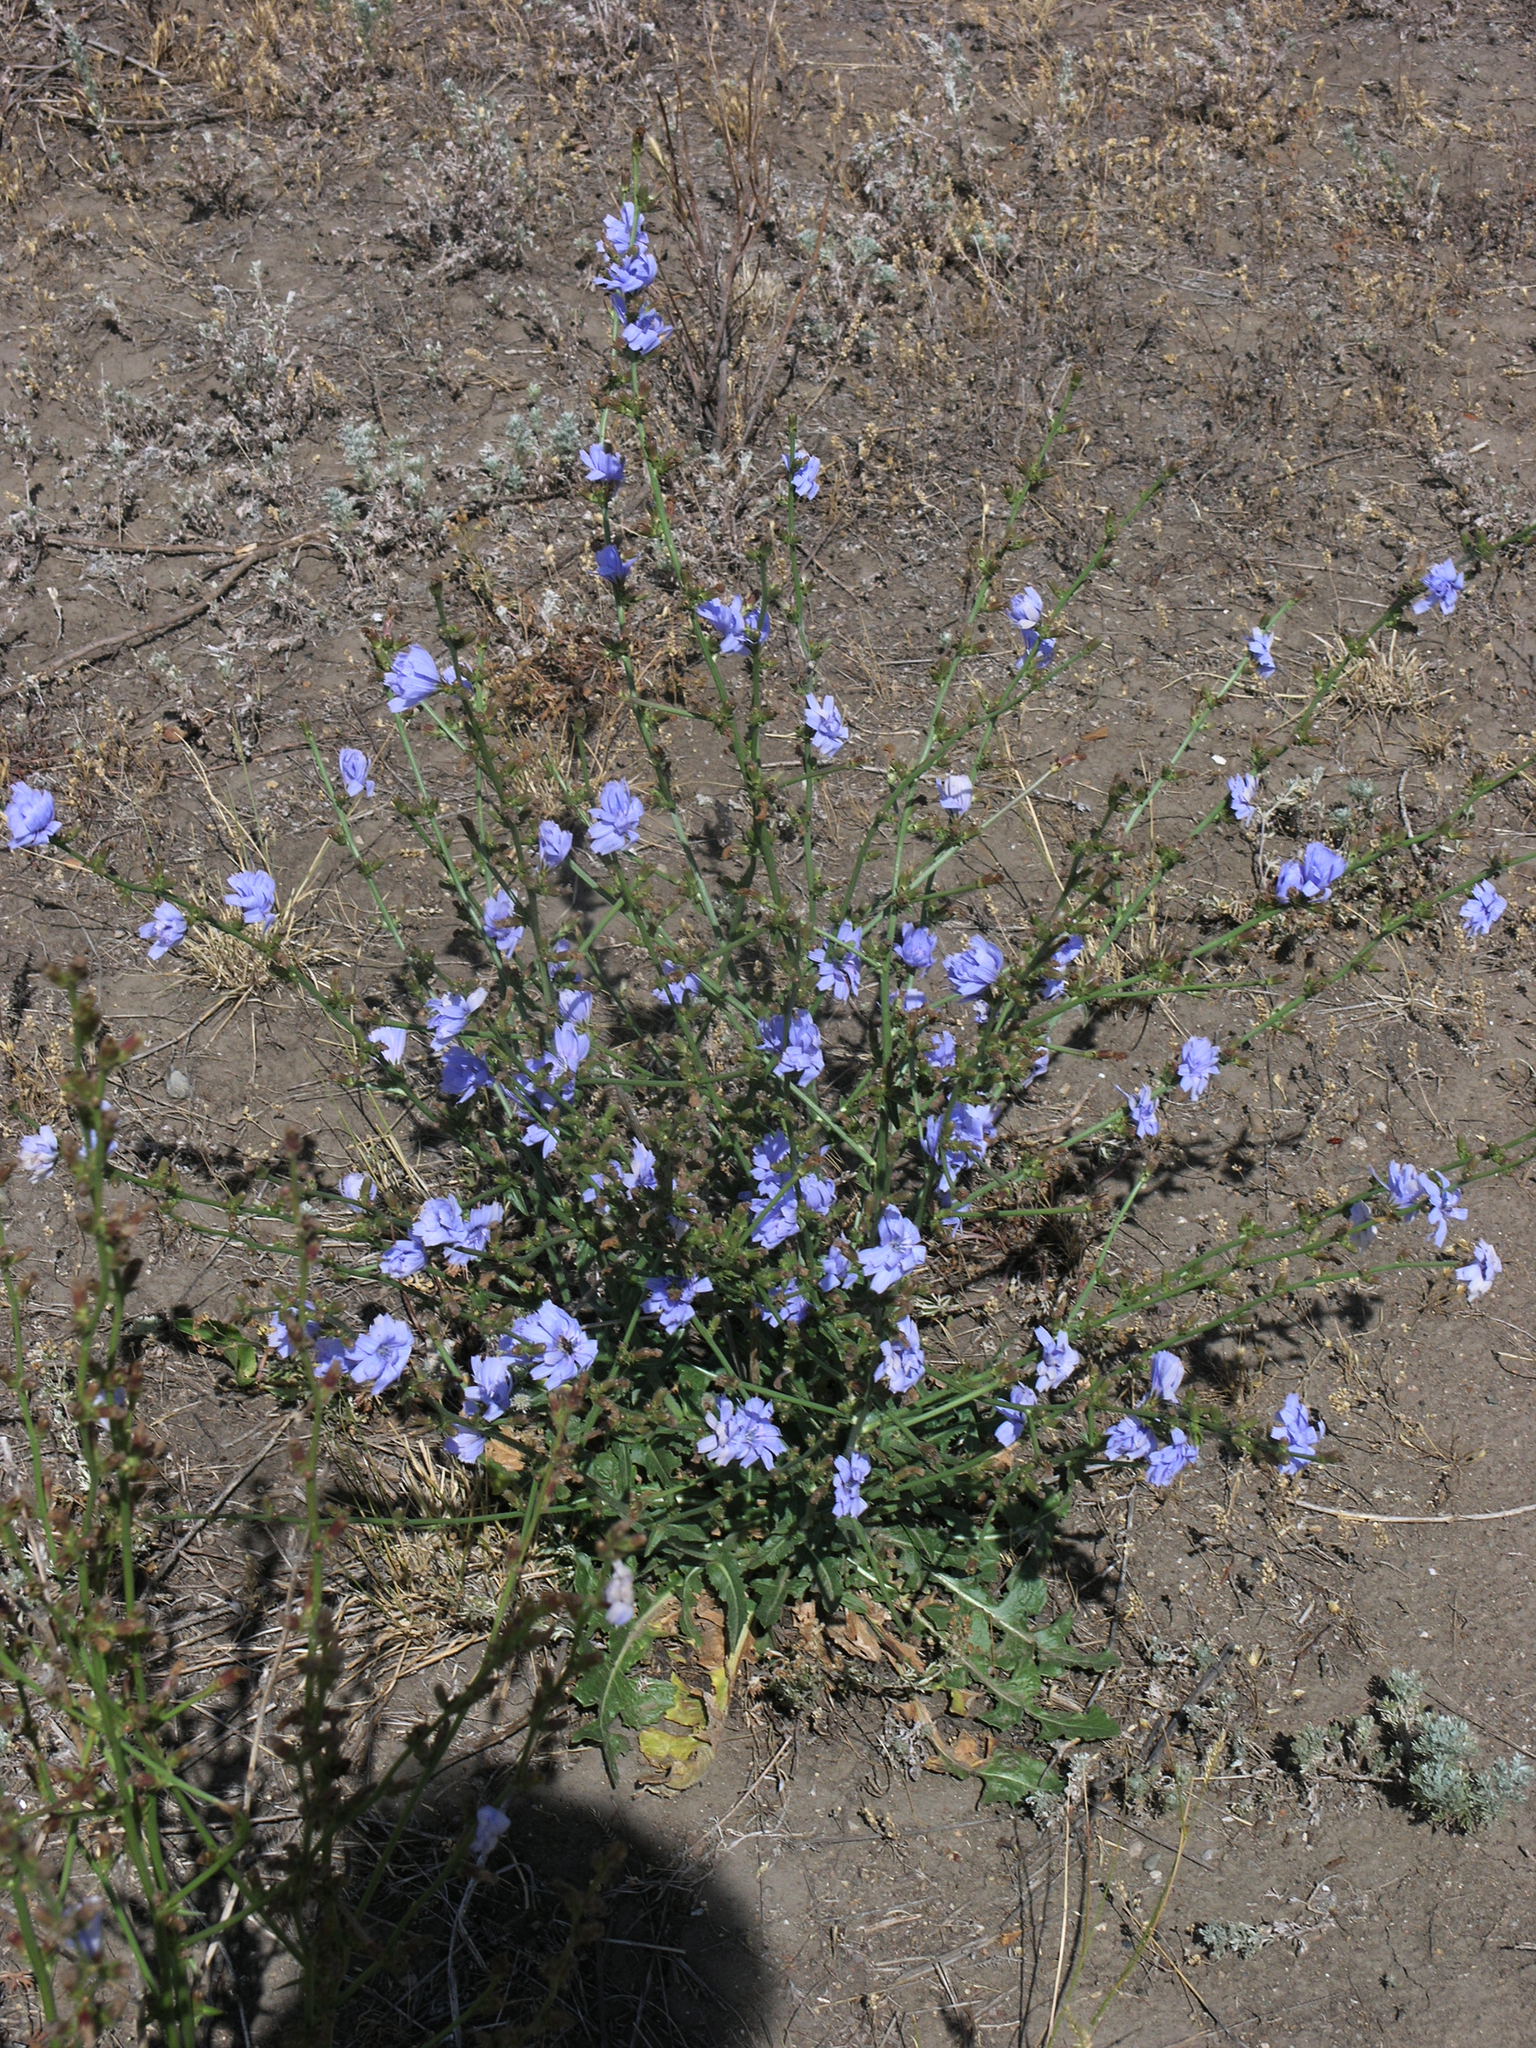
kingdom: Plantae
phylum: Tracheophyta
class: Magnoliopsida
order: Asterales
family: Asteraceae
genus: Cichorium
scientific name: Cichorium intybus
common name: Chicory
